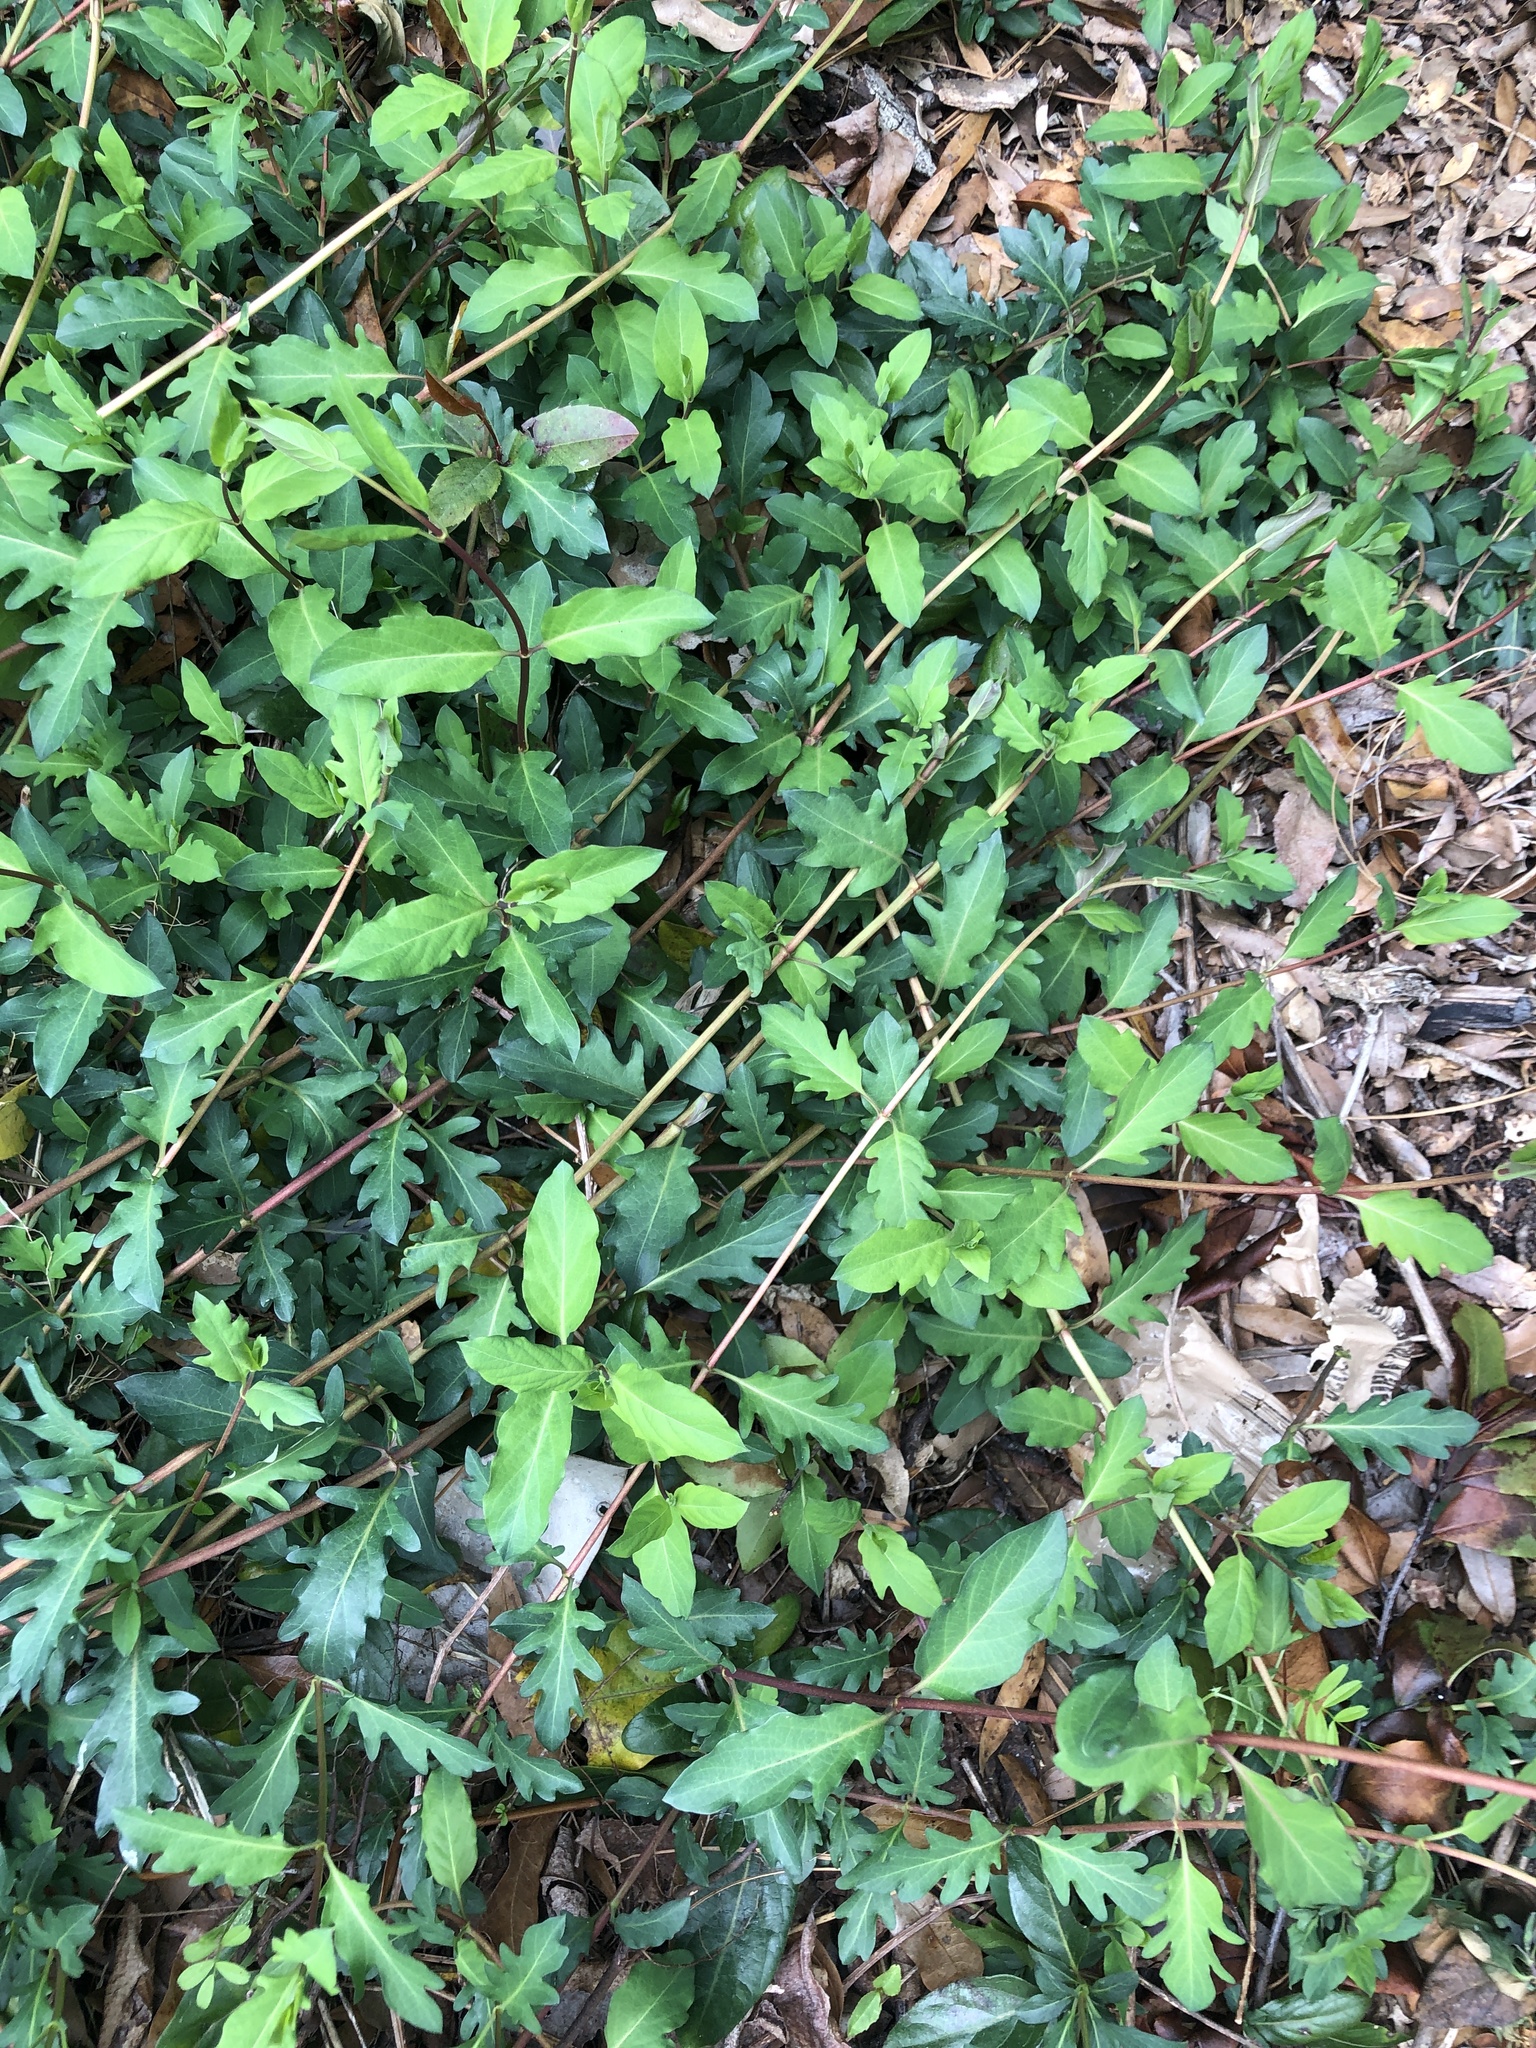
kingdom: Plantae
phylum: Tracheophyta
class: Magnoliopsida
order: Dipsacales
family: Caprifoliaceae
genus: Lonicera
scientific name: Lonicera japonica
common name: Japanese honeysuckle
